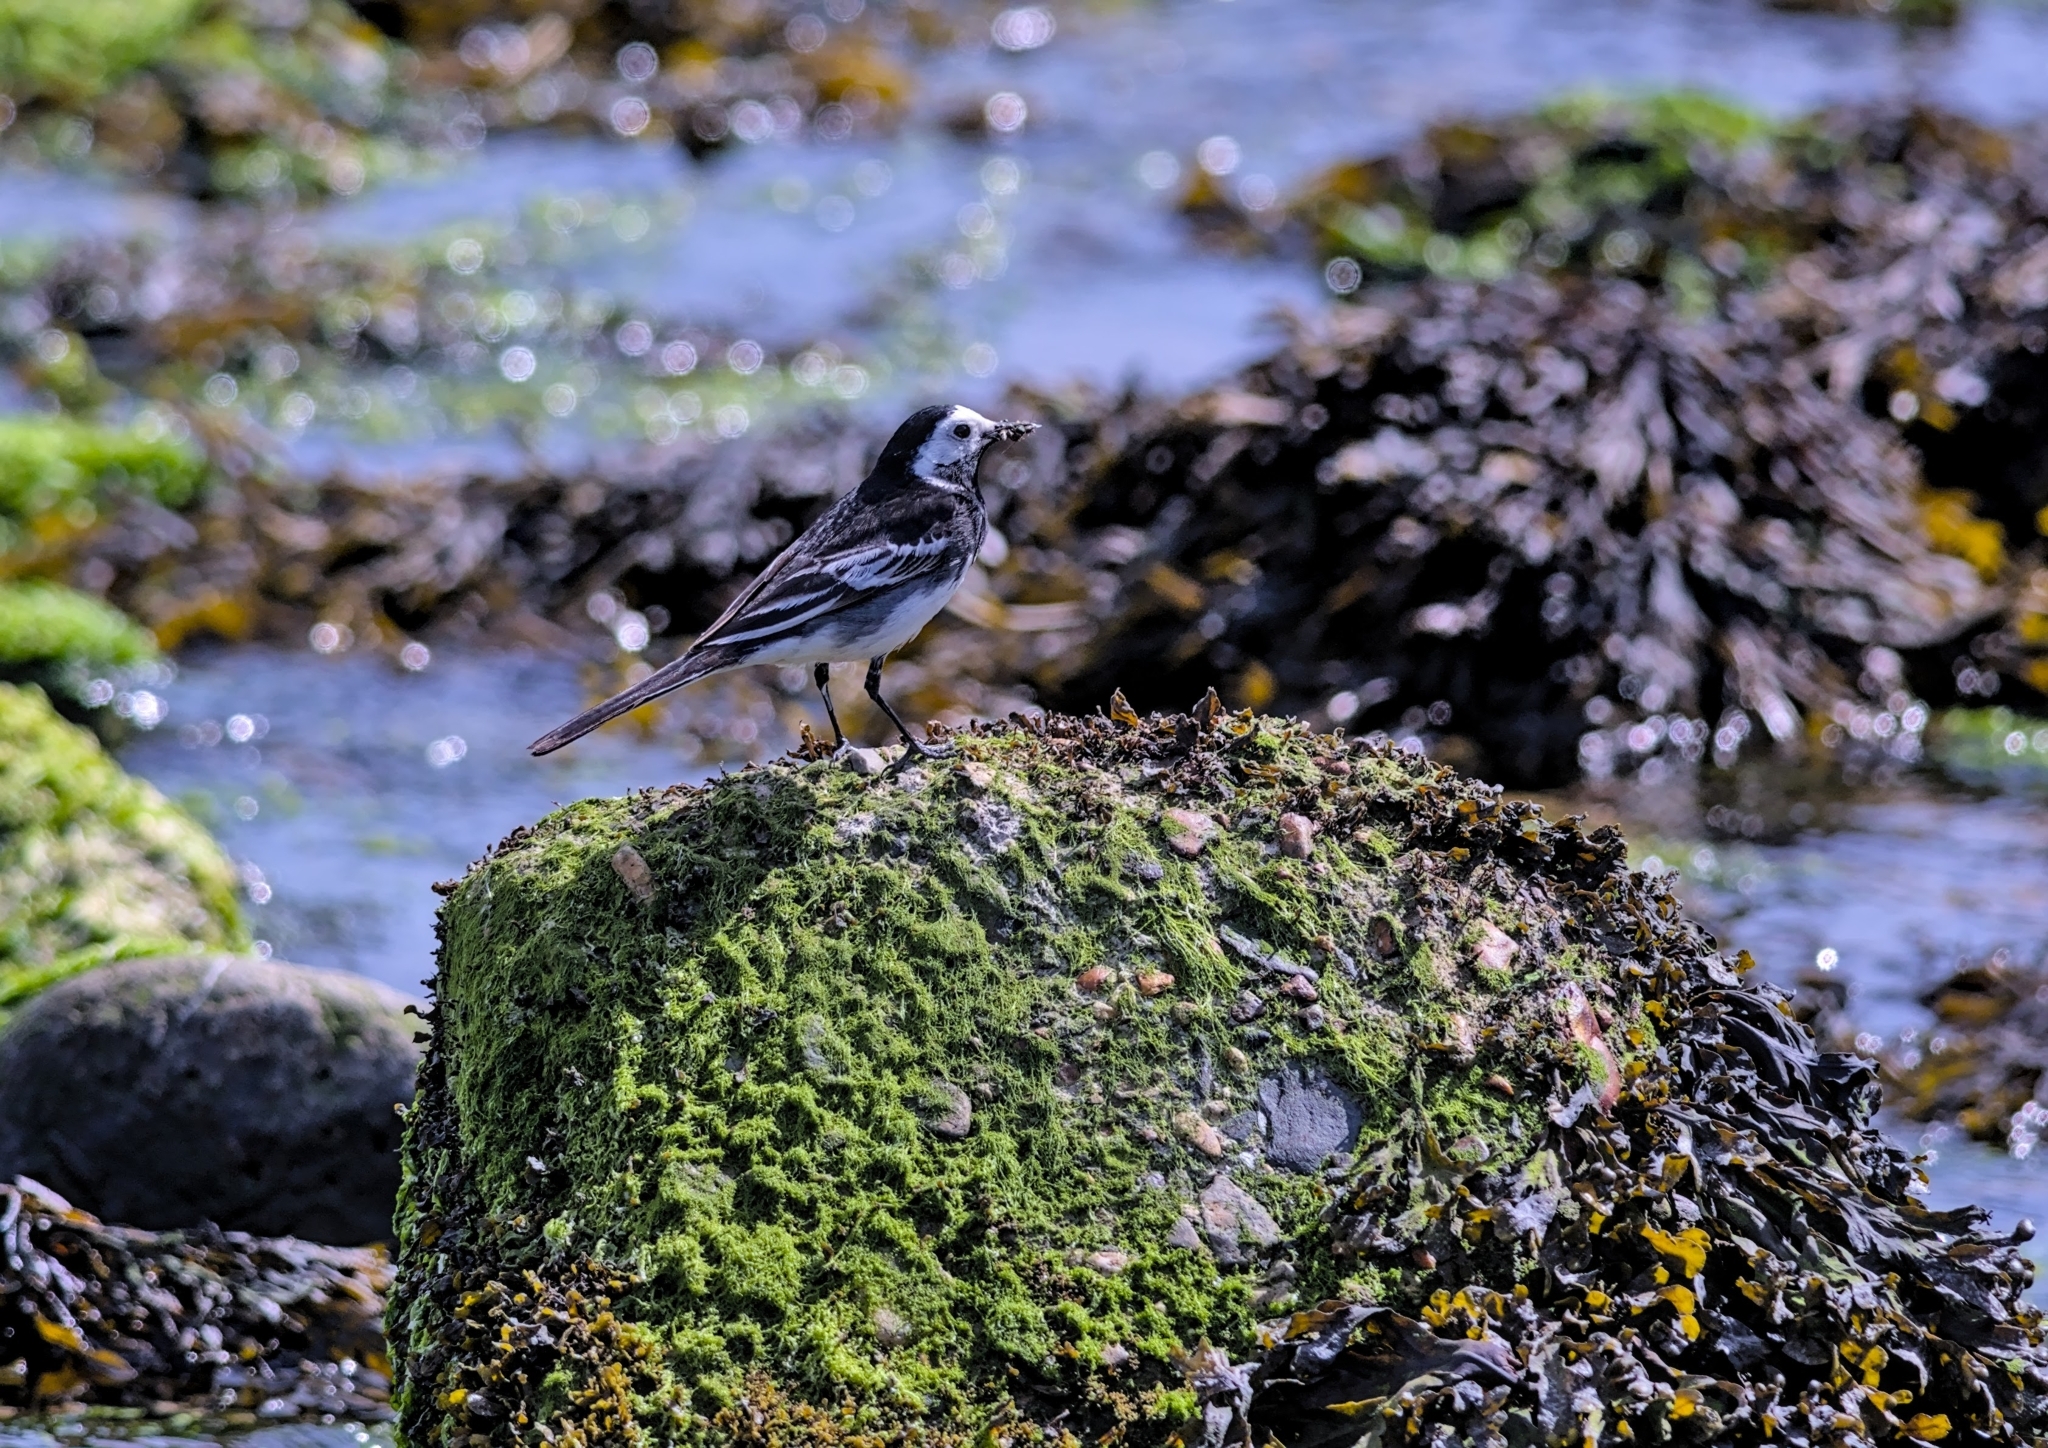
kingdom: Animalia
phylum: Chordata
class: Aves
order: Passeriformes
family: Motacillidae
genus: Motacilla
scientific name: Motacilla alba
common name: White wagtail
